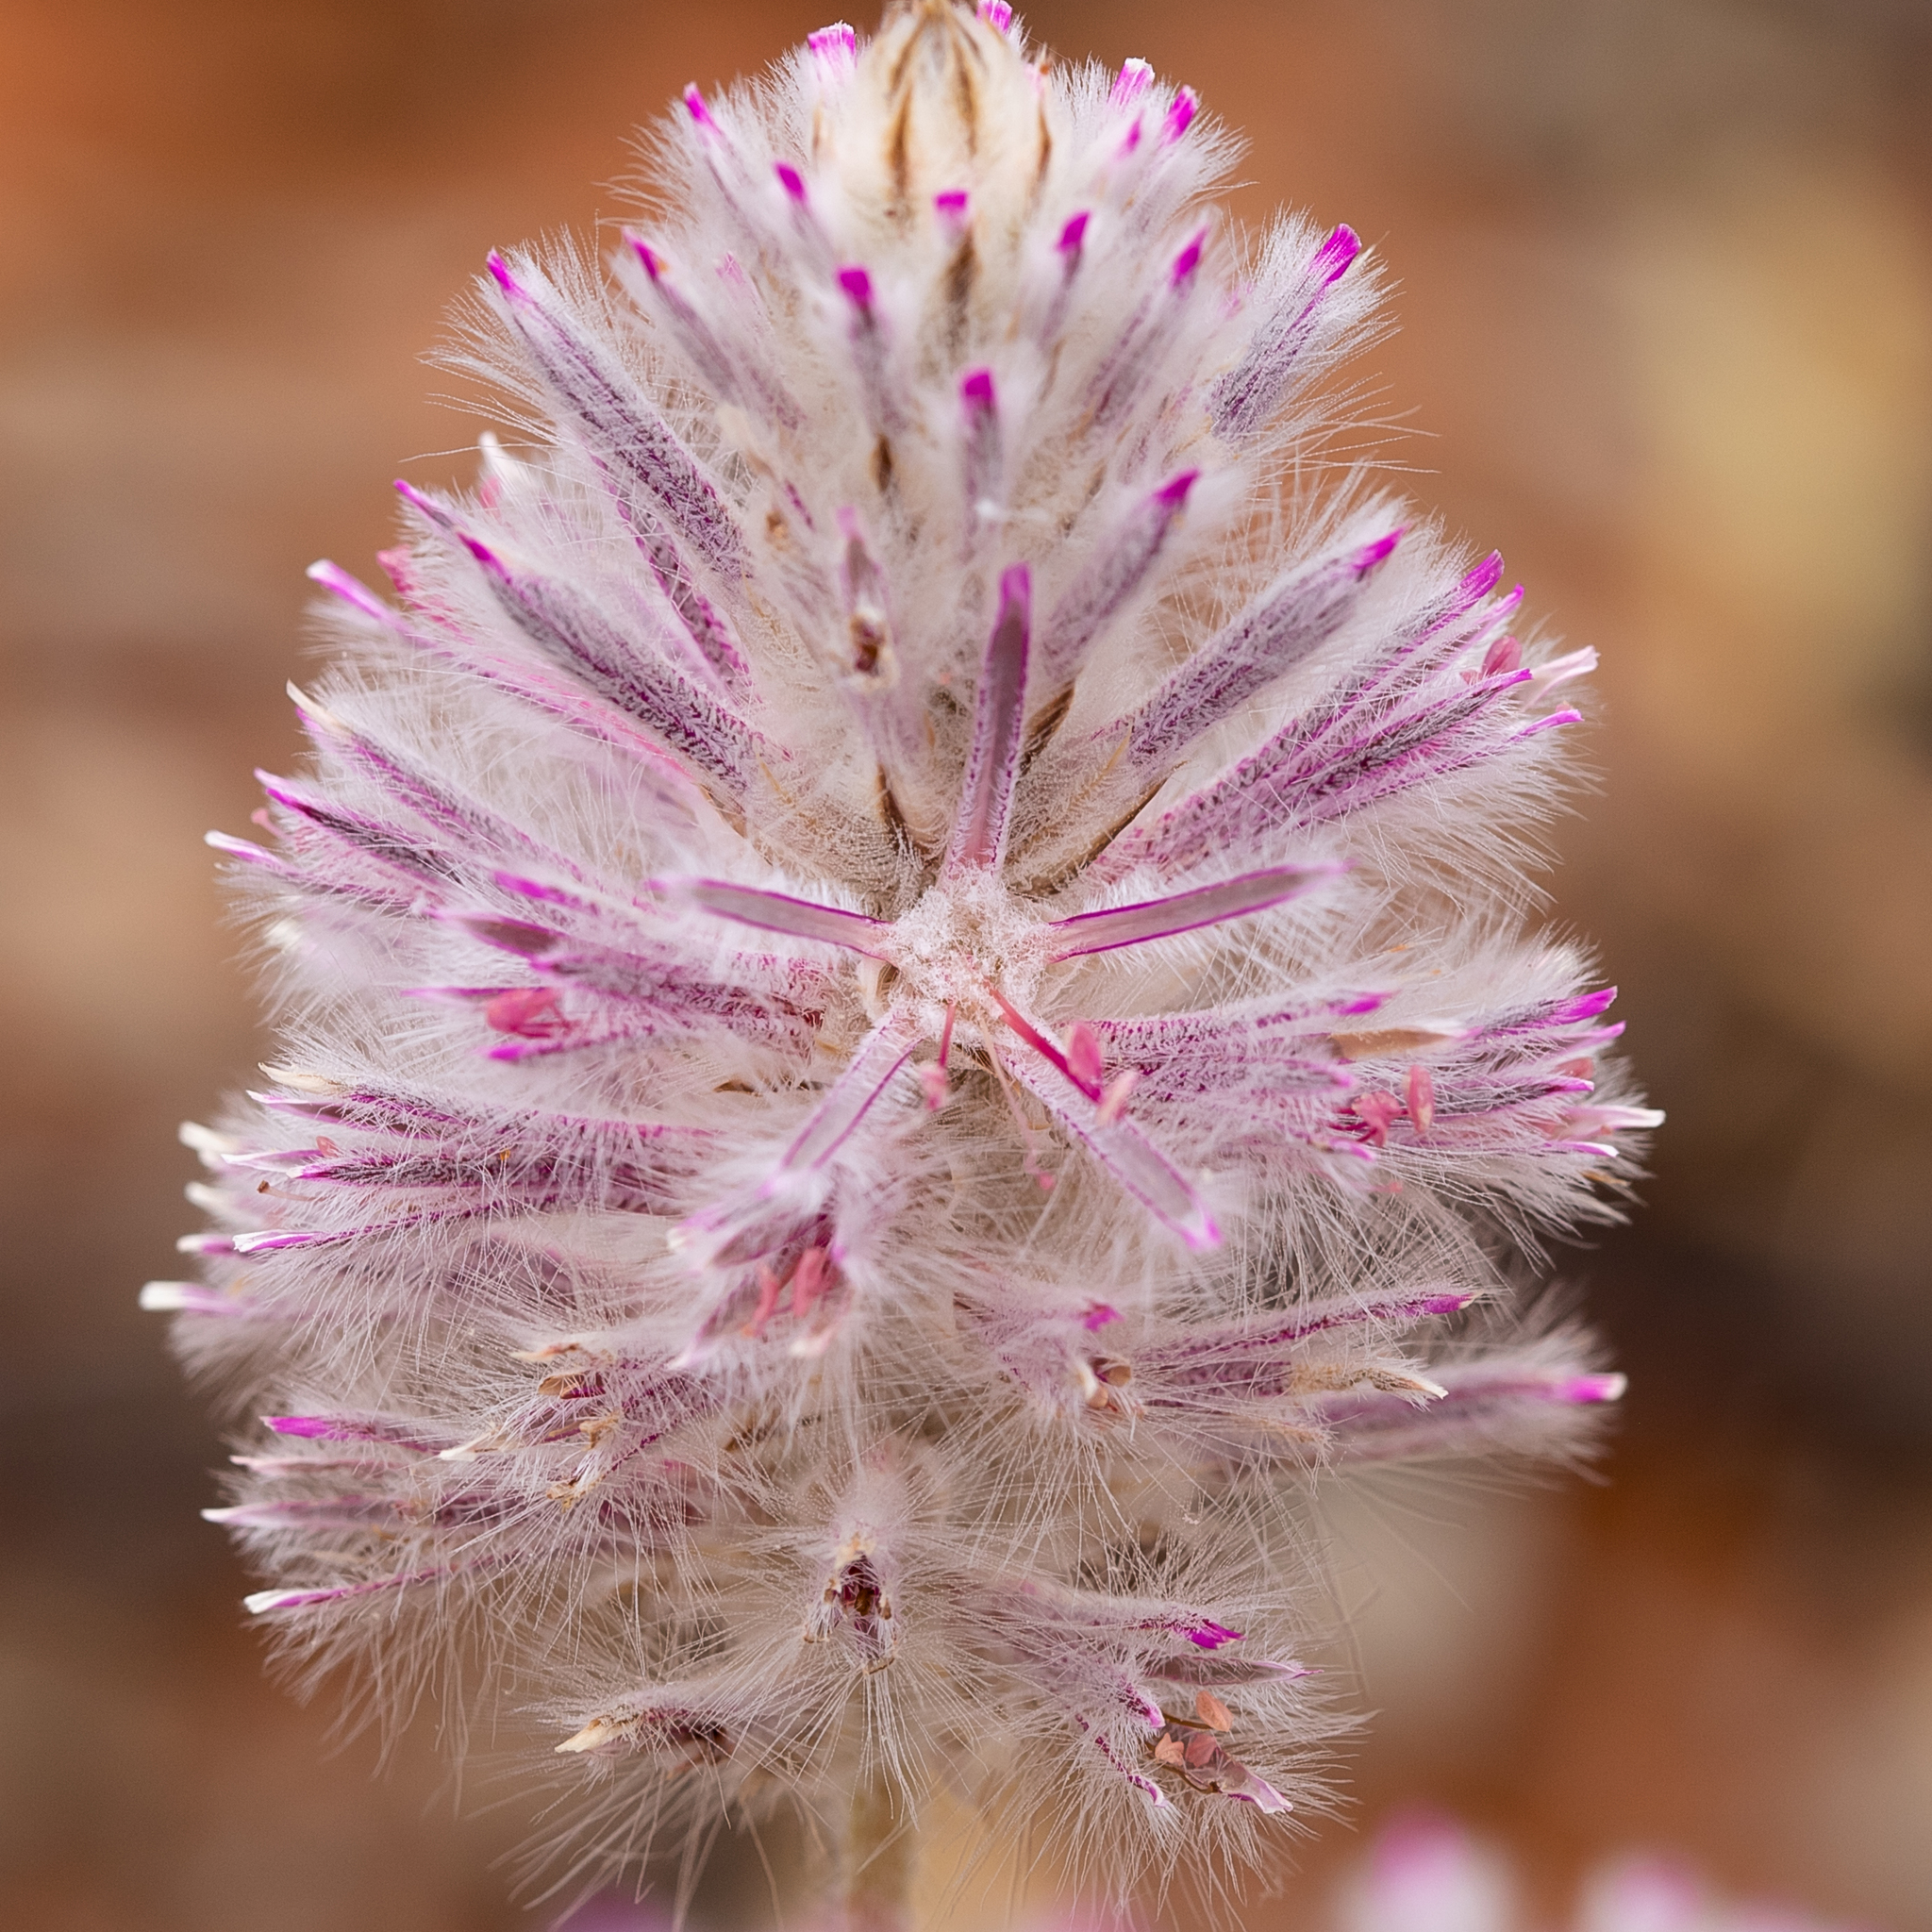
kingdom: Plantae
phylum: Tracheophyta
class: Magnoliopsida
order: Caryophyllales
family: Amaranthaceae
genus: Ptilotus
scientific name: Ptilotus exaltatus
